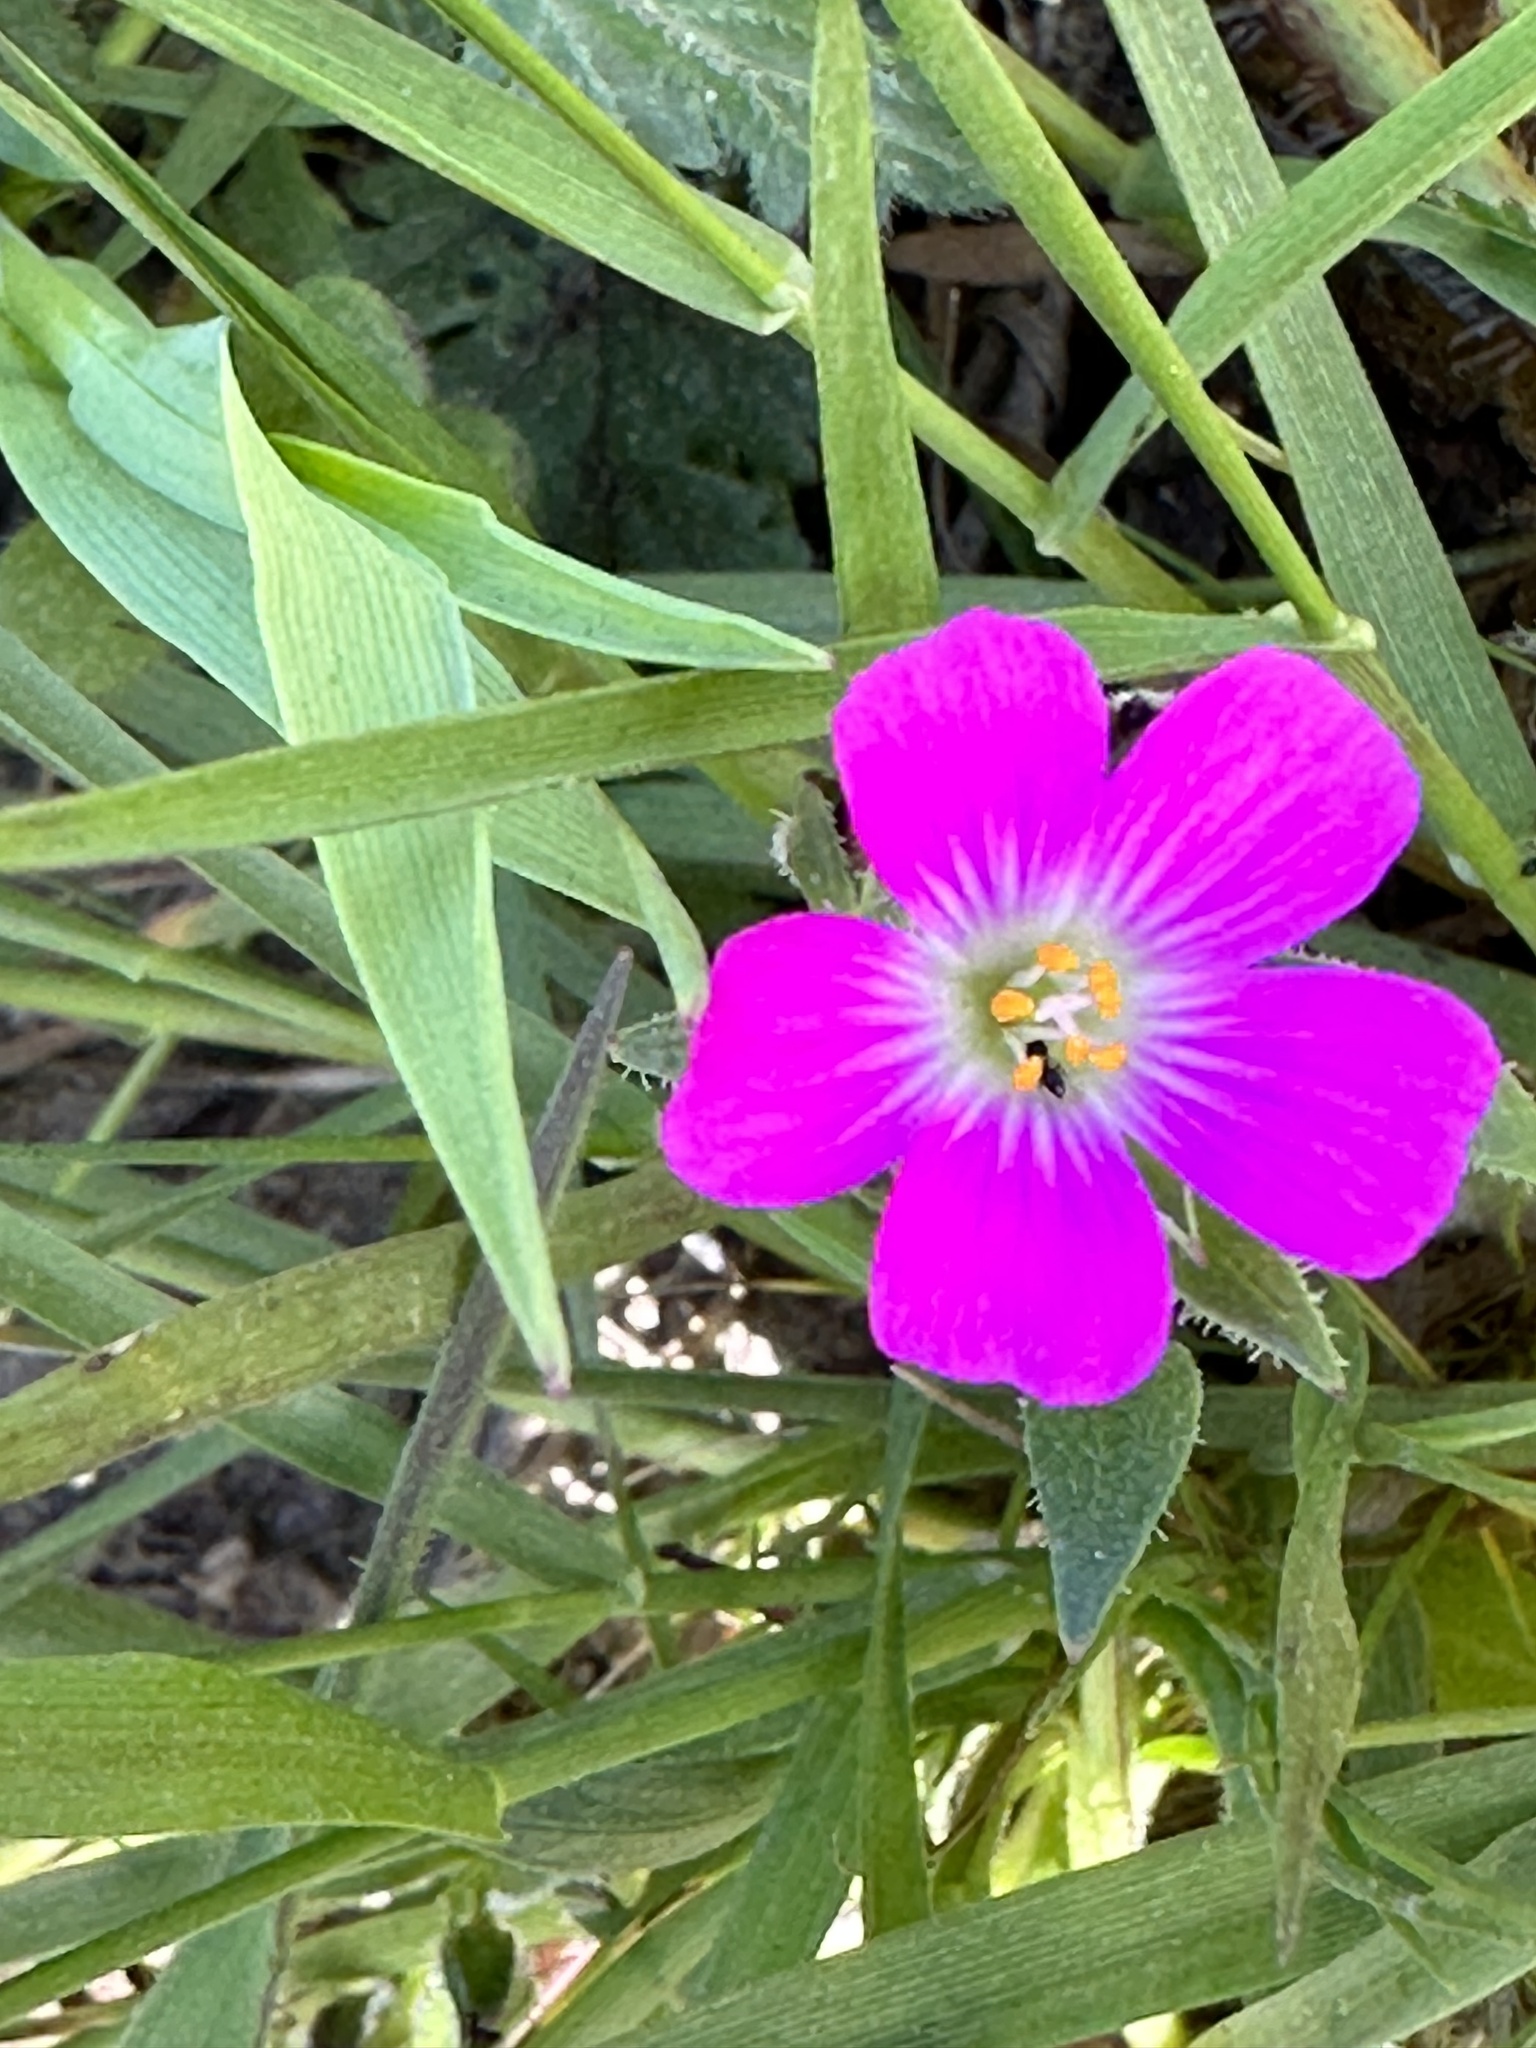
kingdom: Plantae
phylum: Tracheophyta
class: Magnoliopsida
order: Caryophyllales
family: Montiaceae
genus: Calandrinia
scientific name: Calandrinia menziesii
